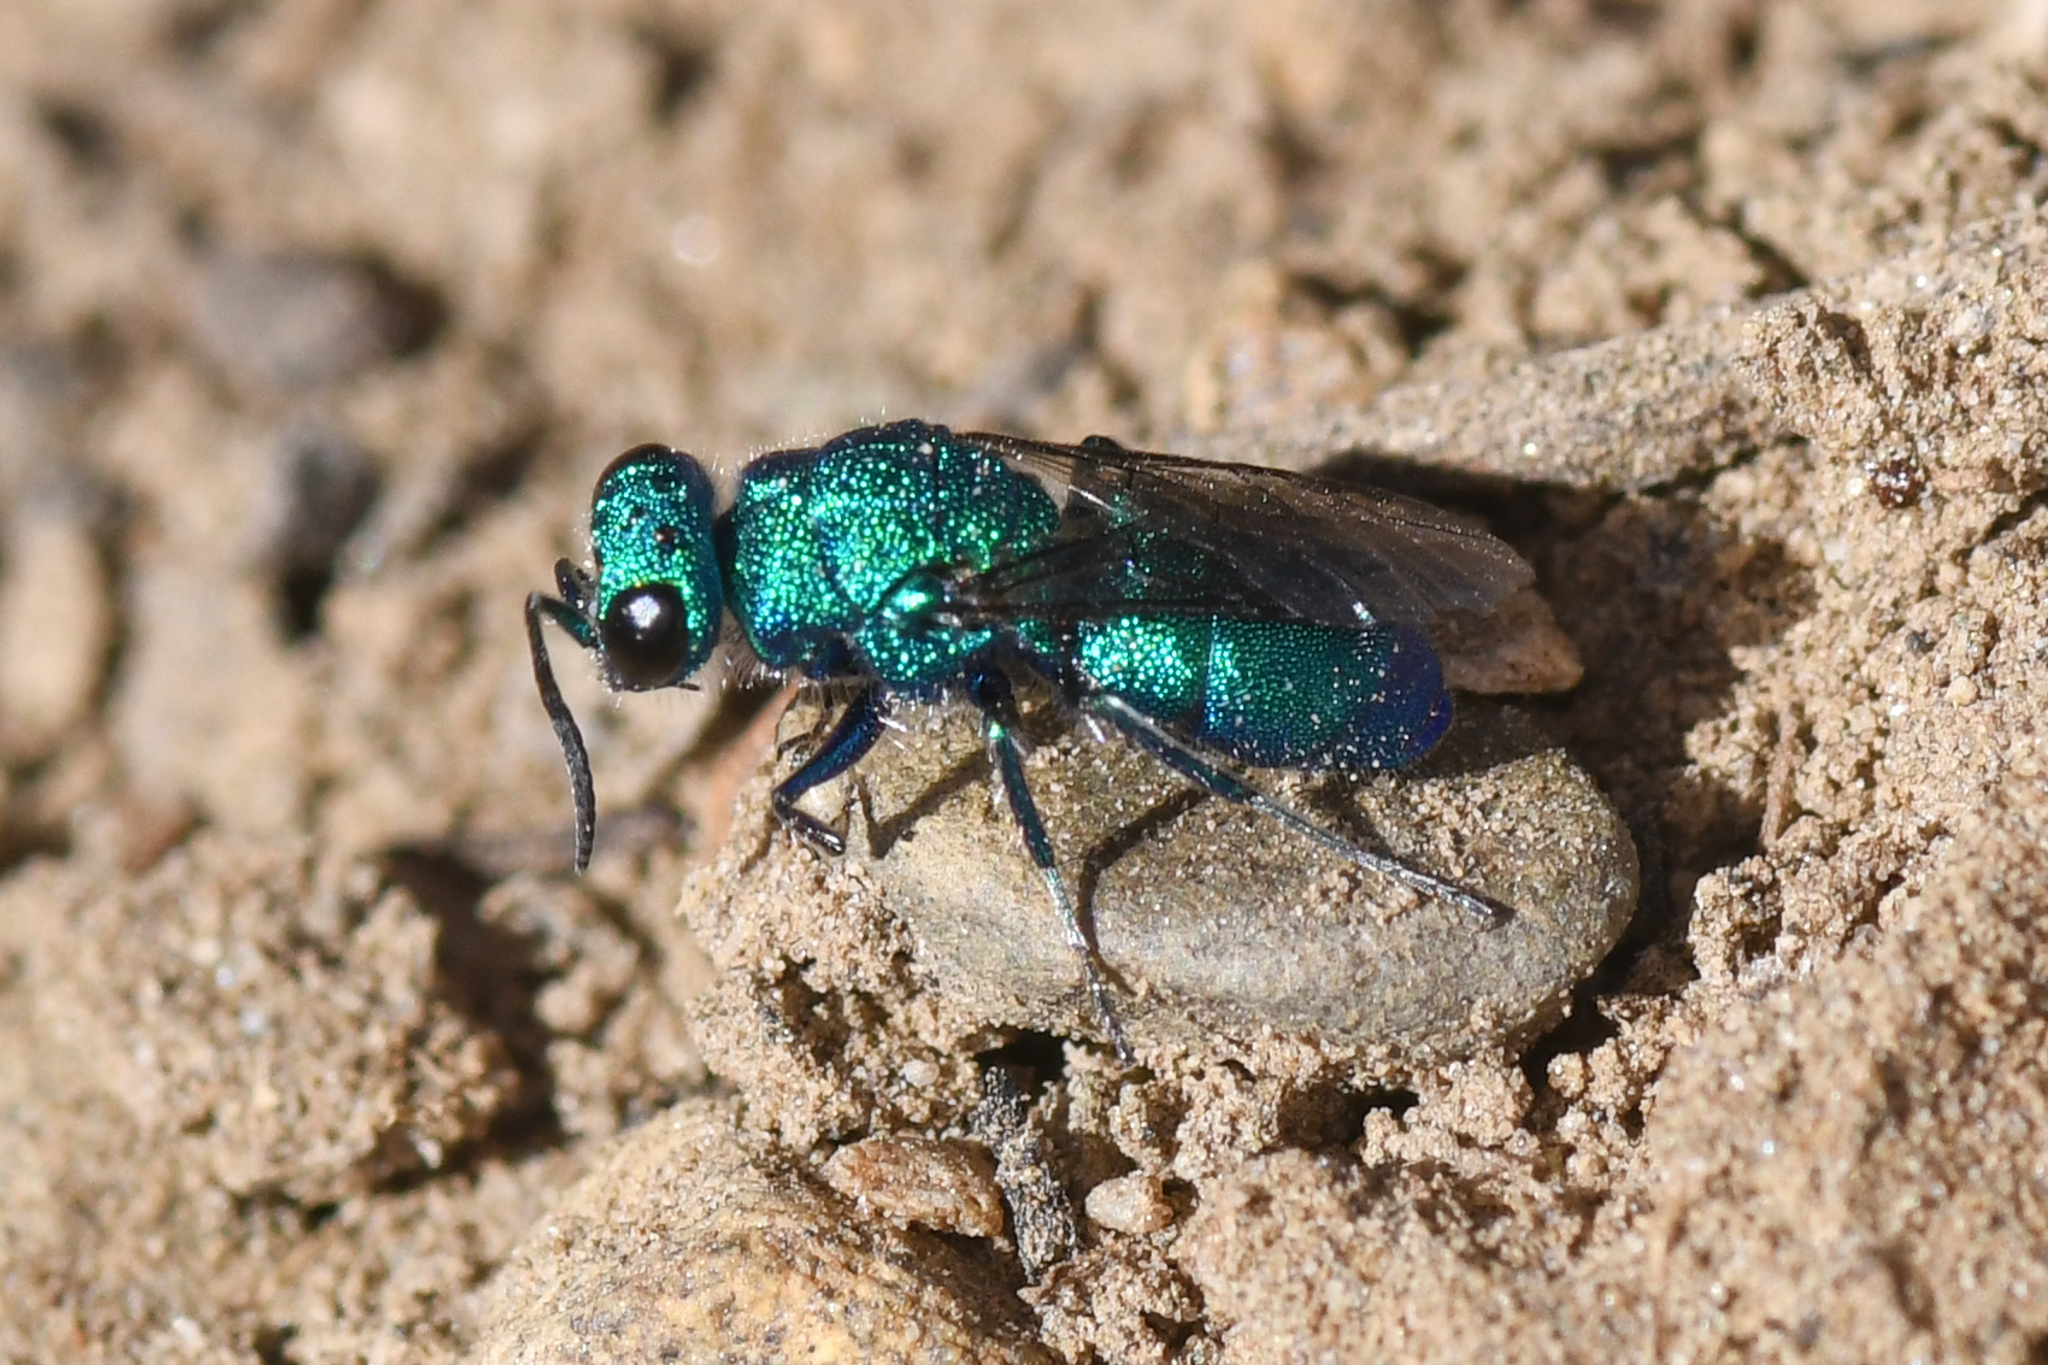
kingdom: Animalia
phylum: Arthropoda
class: Insecta
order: Hymenoptera
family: Chrysididae
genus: Ceratochrysis
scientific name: Ceratochrysis
